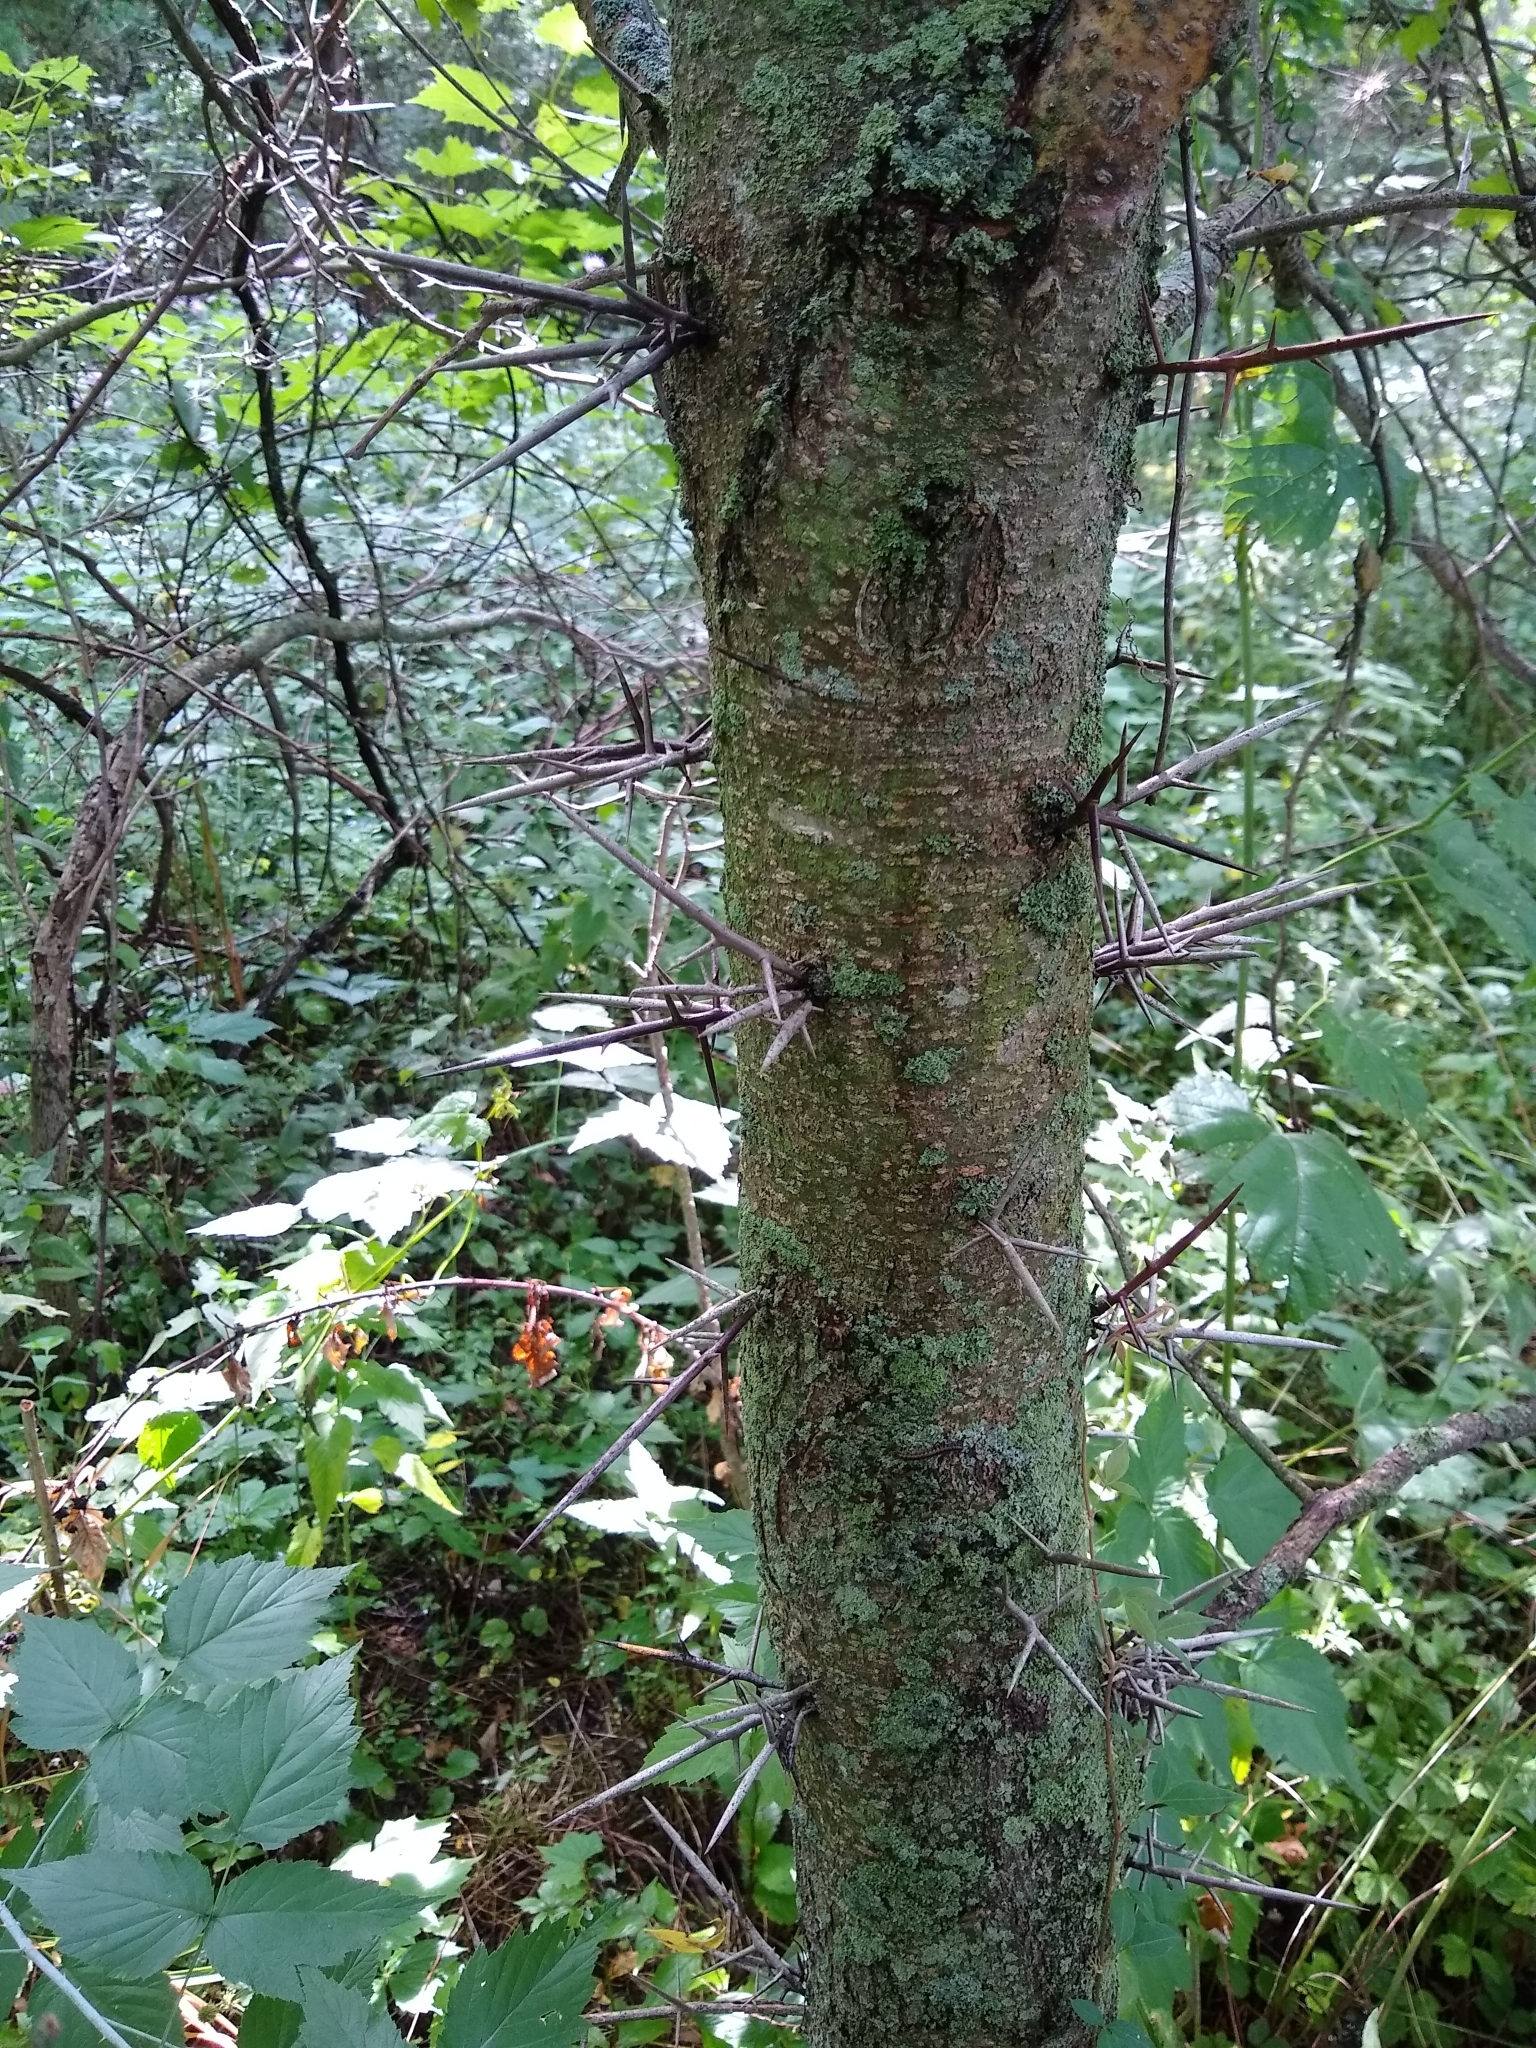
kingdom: Plantae
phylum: Tracheophyta
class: Magnoliopsida
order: Fabales
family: Fabaceae
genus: Gleditsia
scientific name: Gleditsia triacanthos
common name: Common honeylocust
